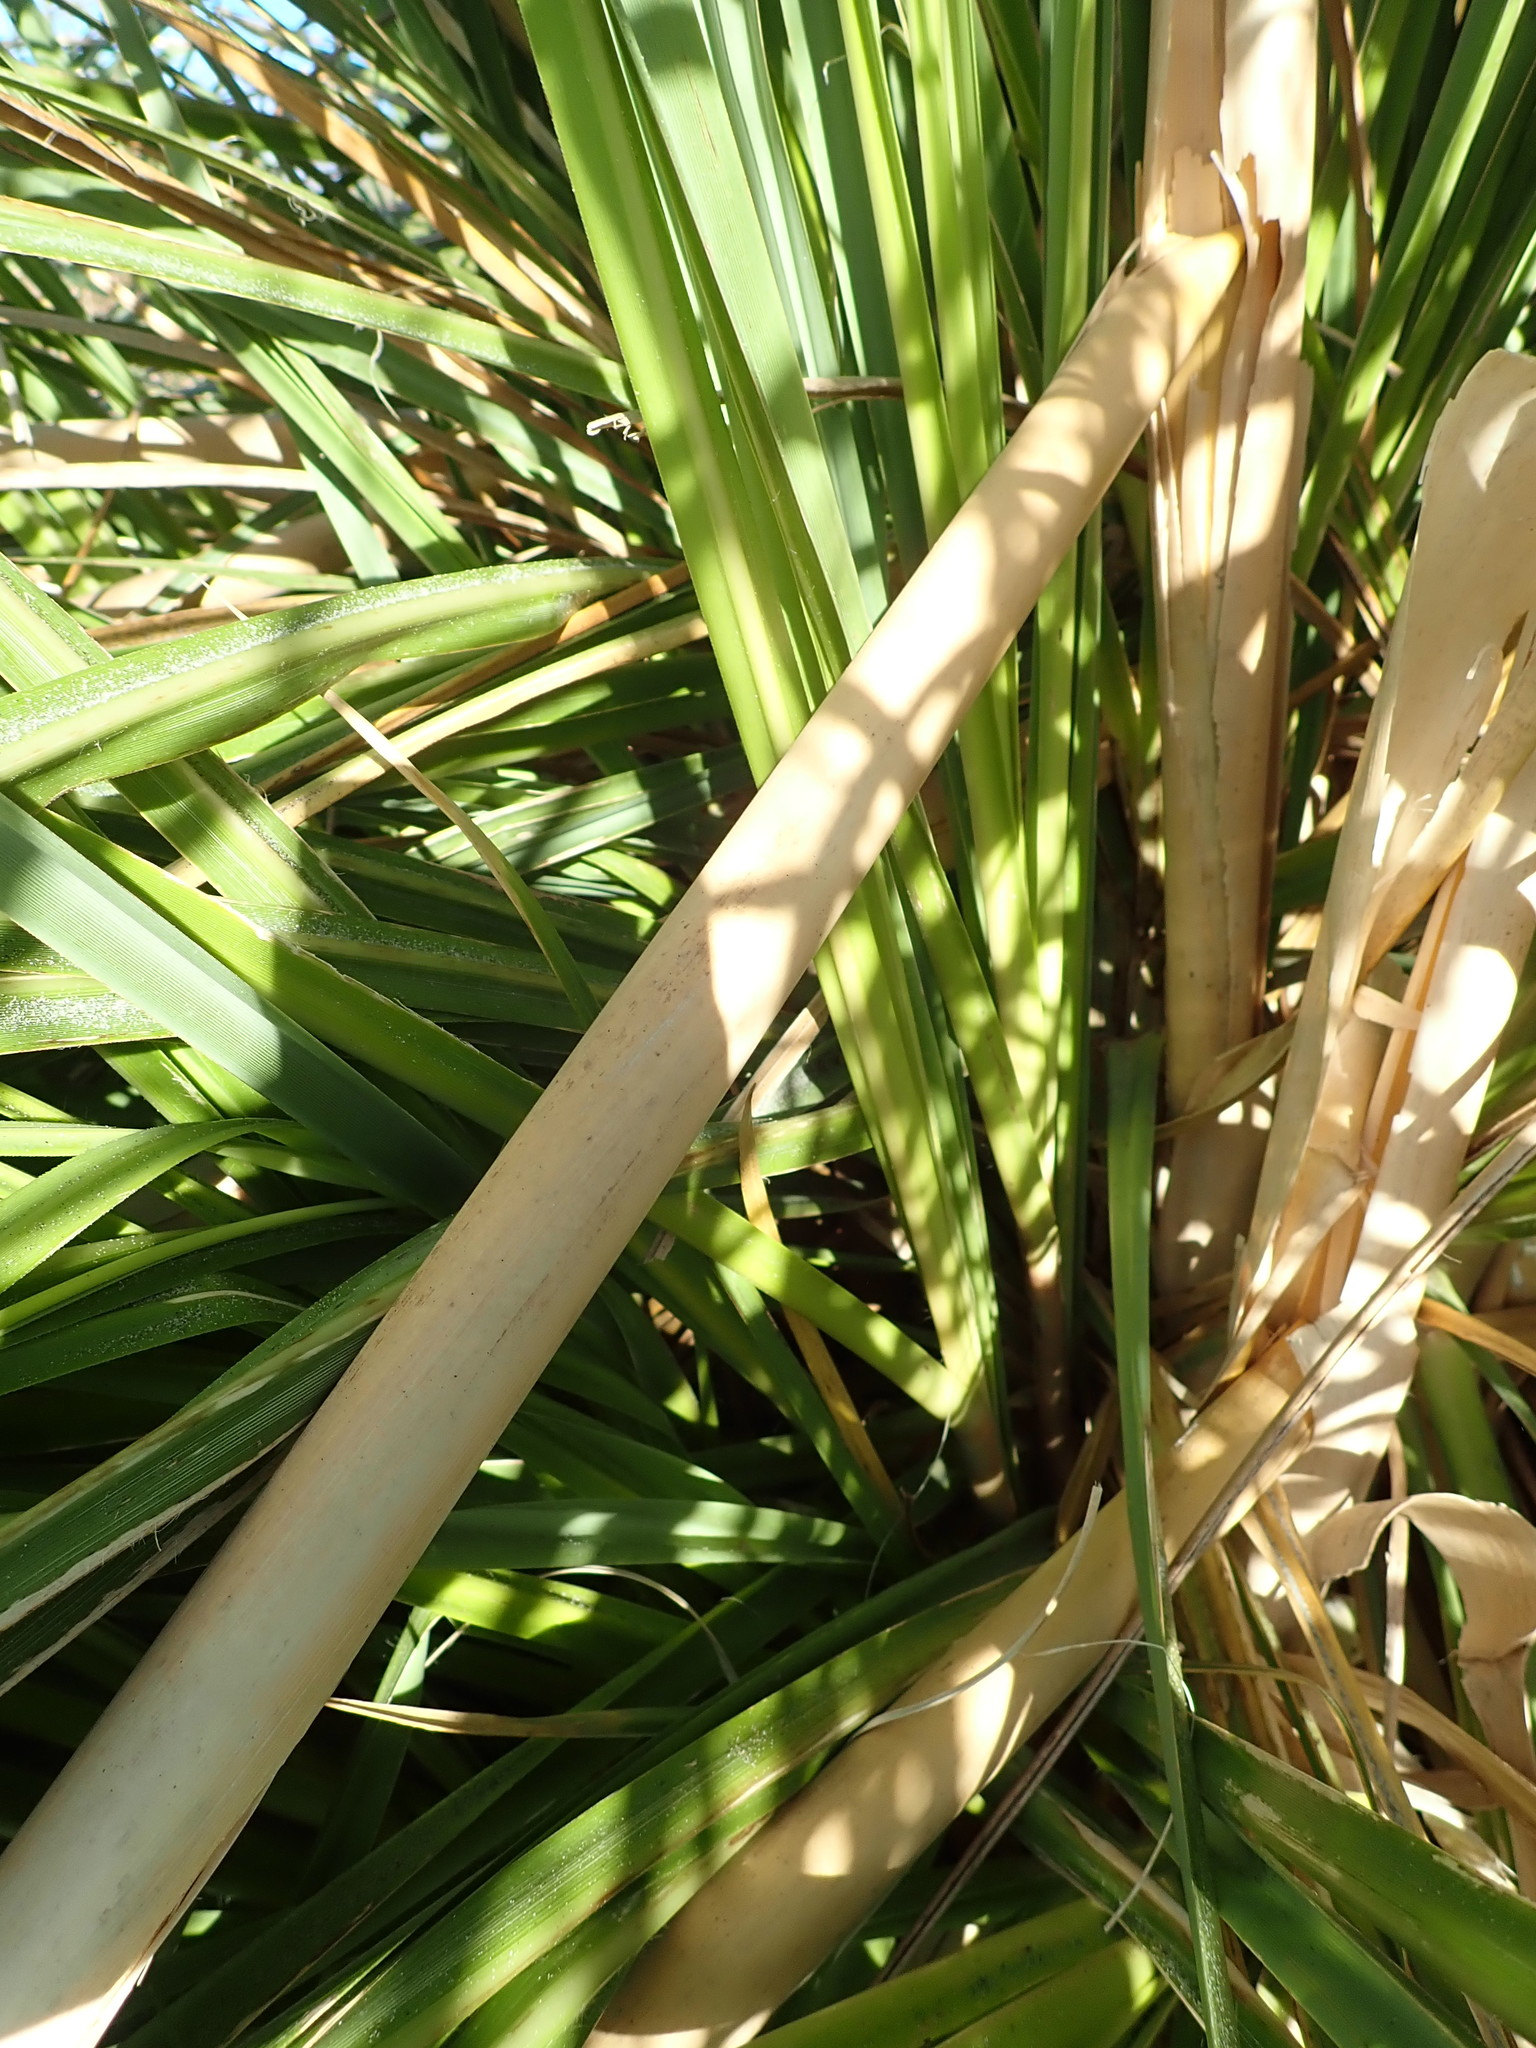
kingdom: Plantae
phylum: Tracheophyta
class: Liliopsida
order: Poales
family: Poaceae
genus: Cortaderia
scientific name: Cortaderia selloana
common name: Uruguayan pampas grass
